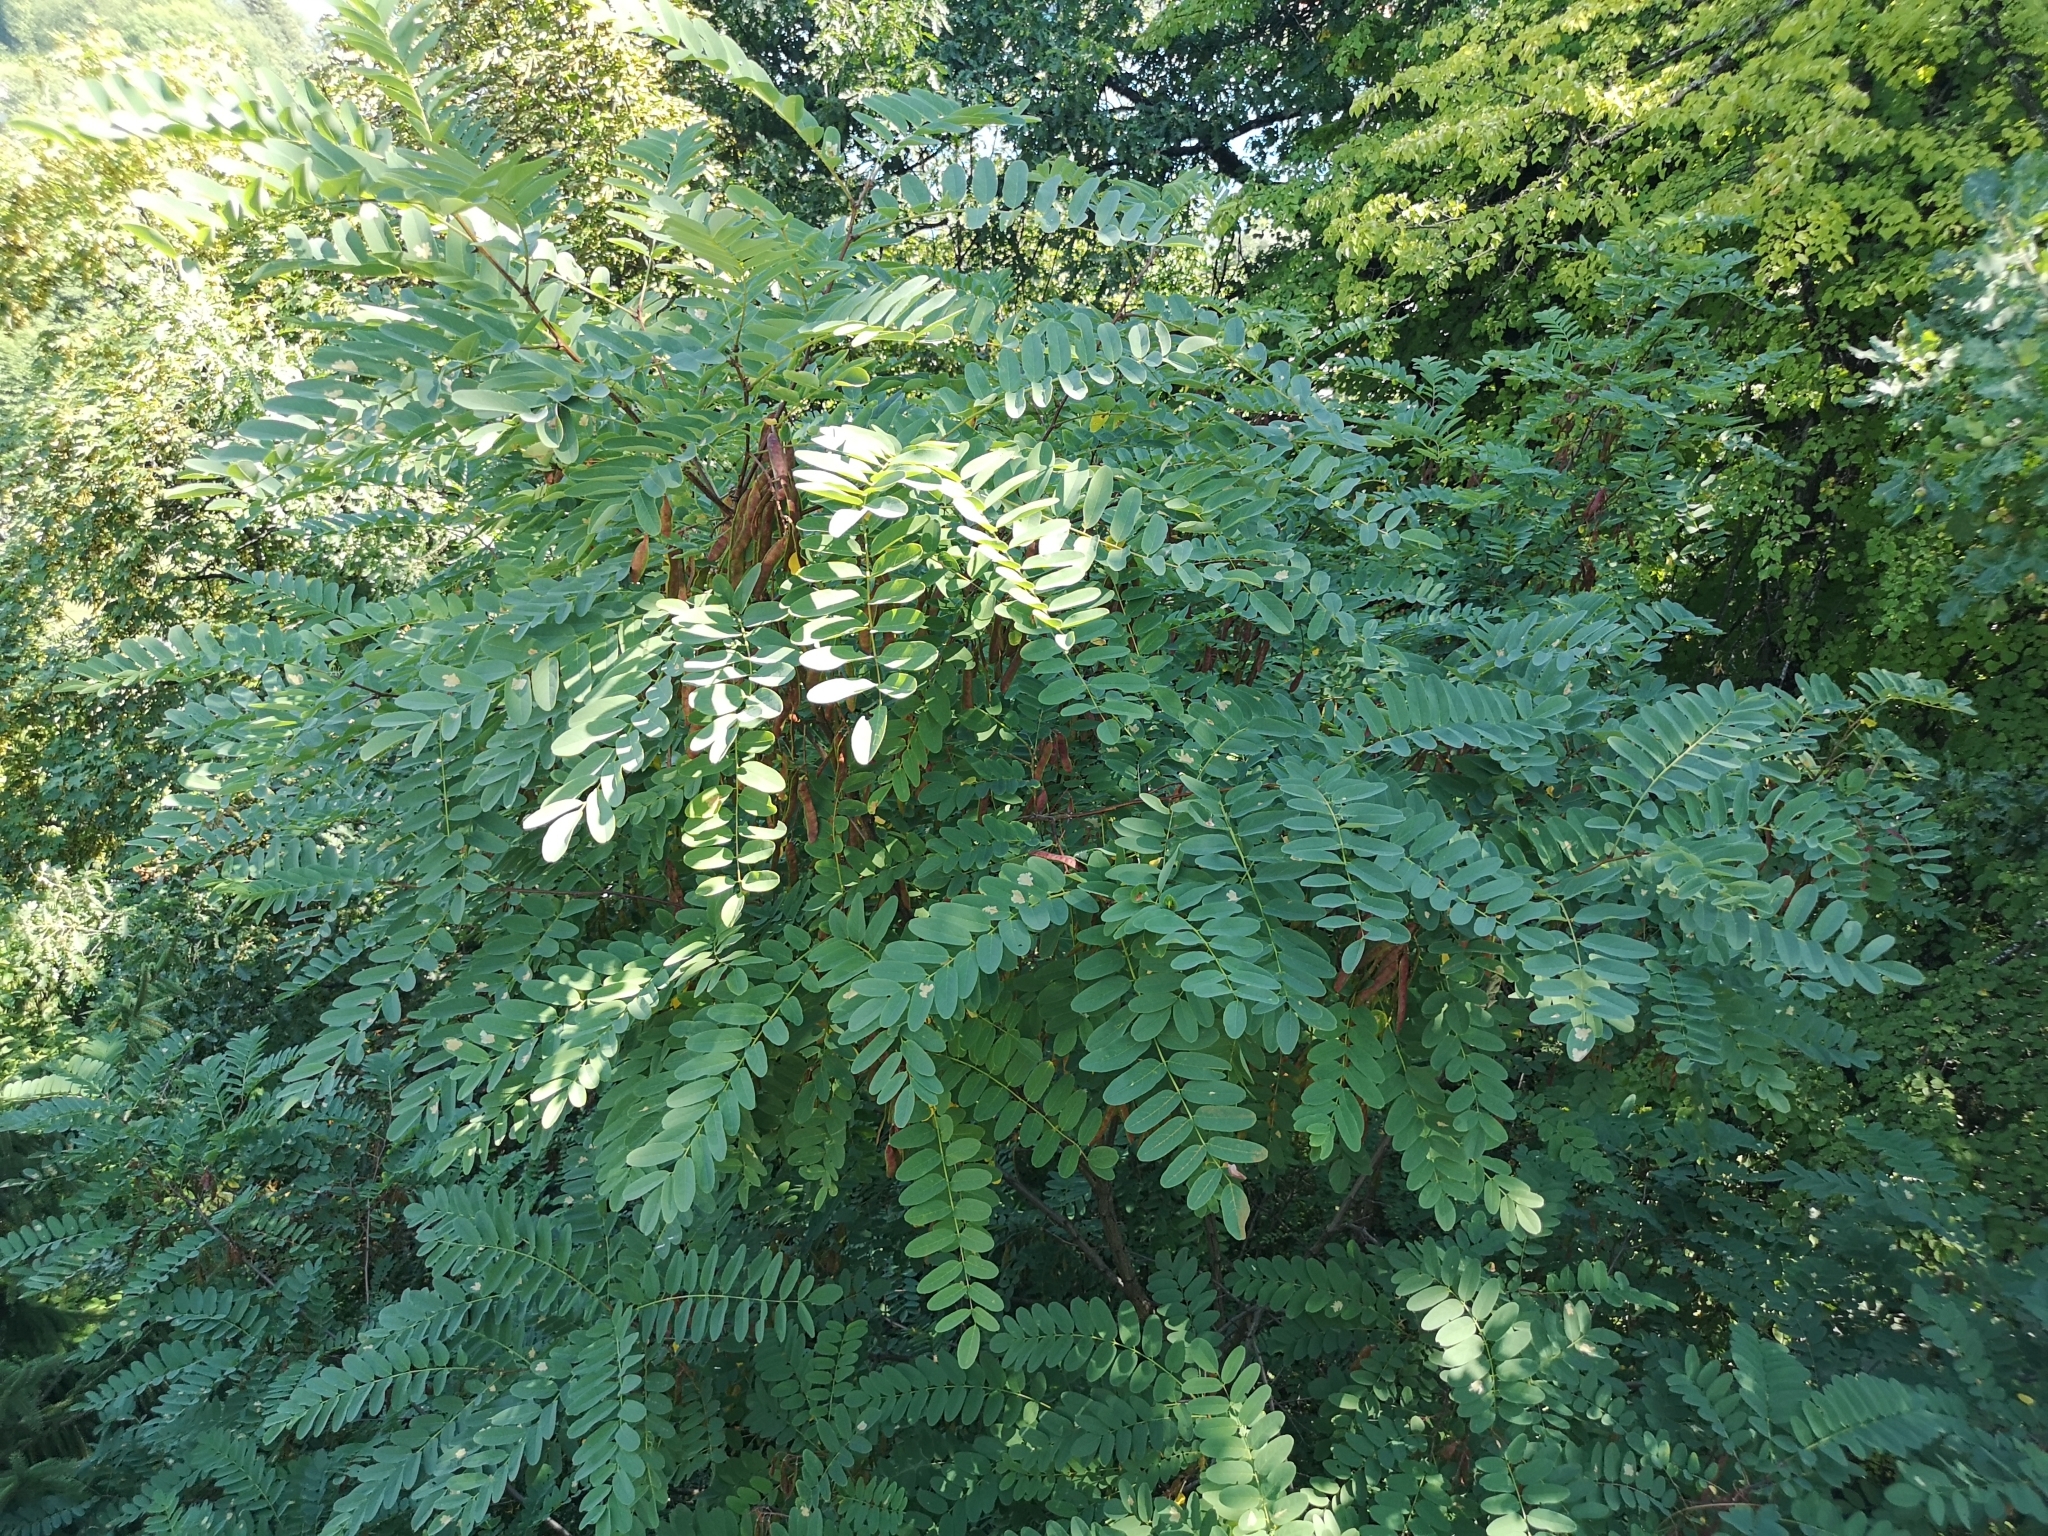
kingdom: Plantae
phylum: Tracheophyta
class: Magnoliopsida
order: Fabales
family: Fabaceae
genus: Robinia
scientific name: Robinia pseudoacacia
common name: Black locust
